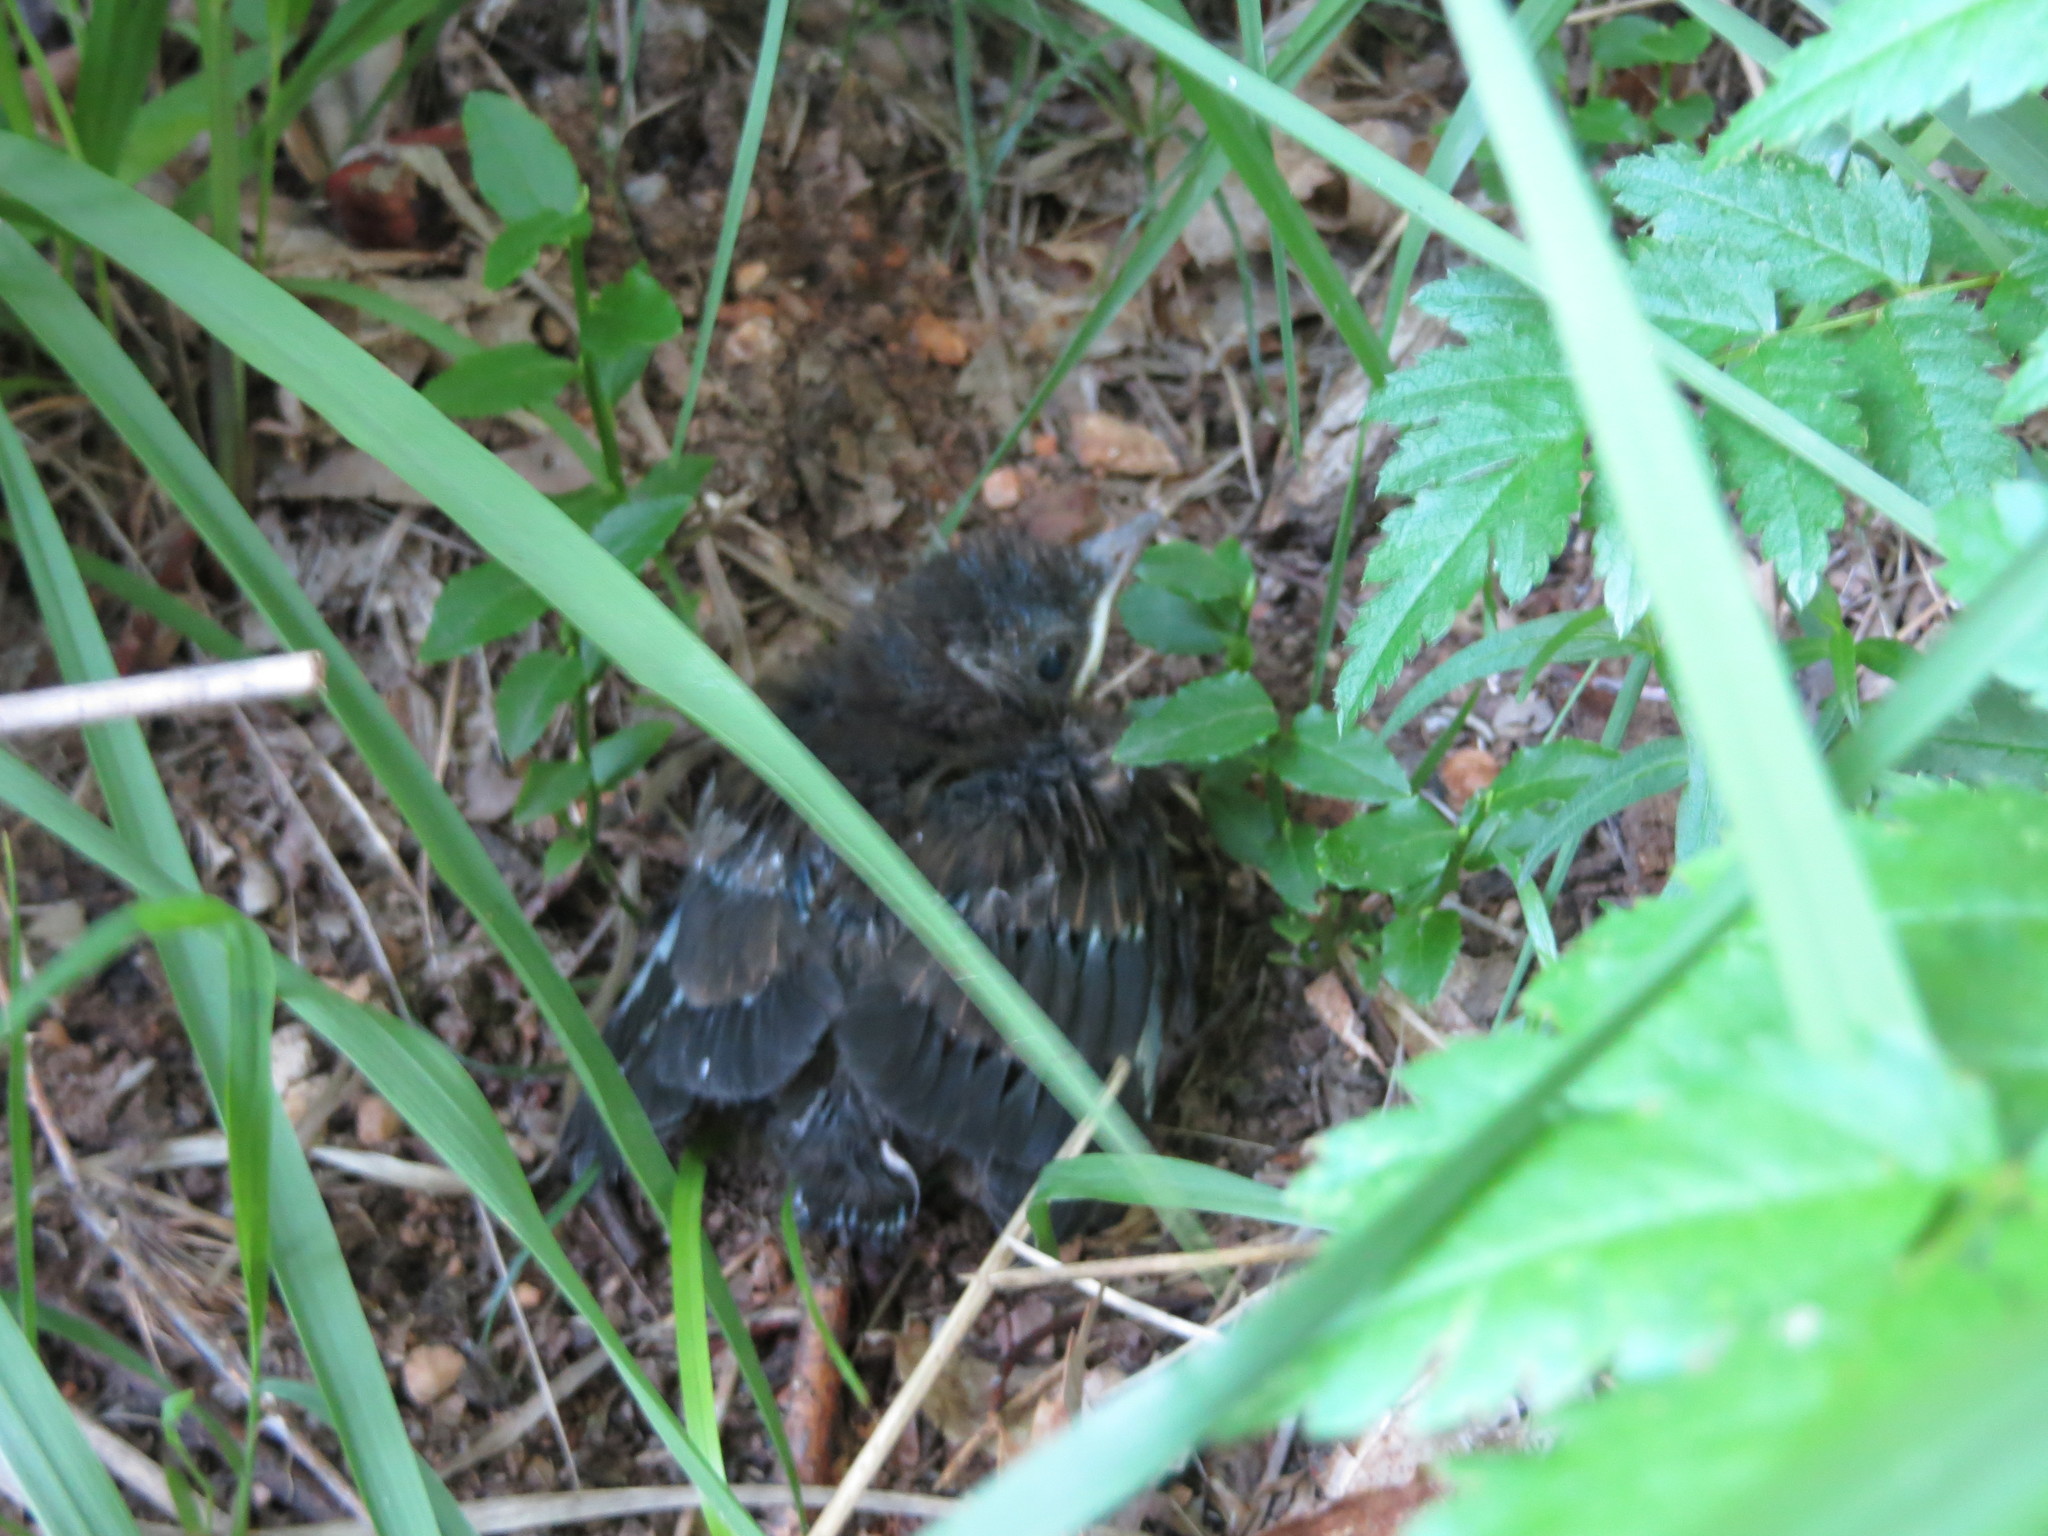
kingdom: Animalia
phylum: Chordata
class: Aves
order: Passeriformes
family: Turdidae
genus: Turdus
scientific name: Turdus merula
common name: Common blackbird
